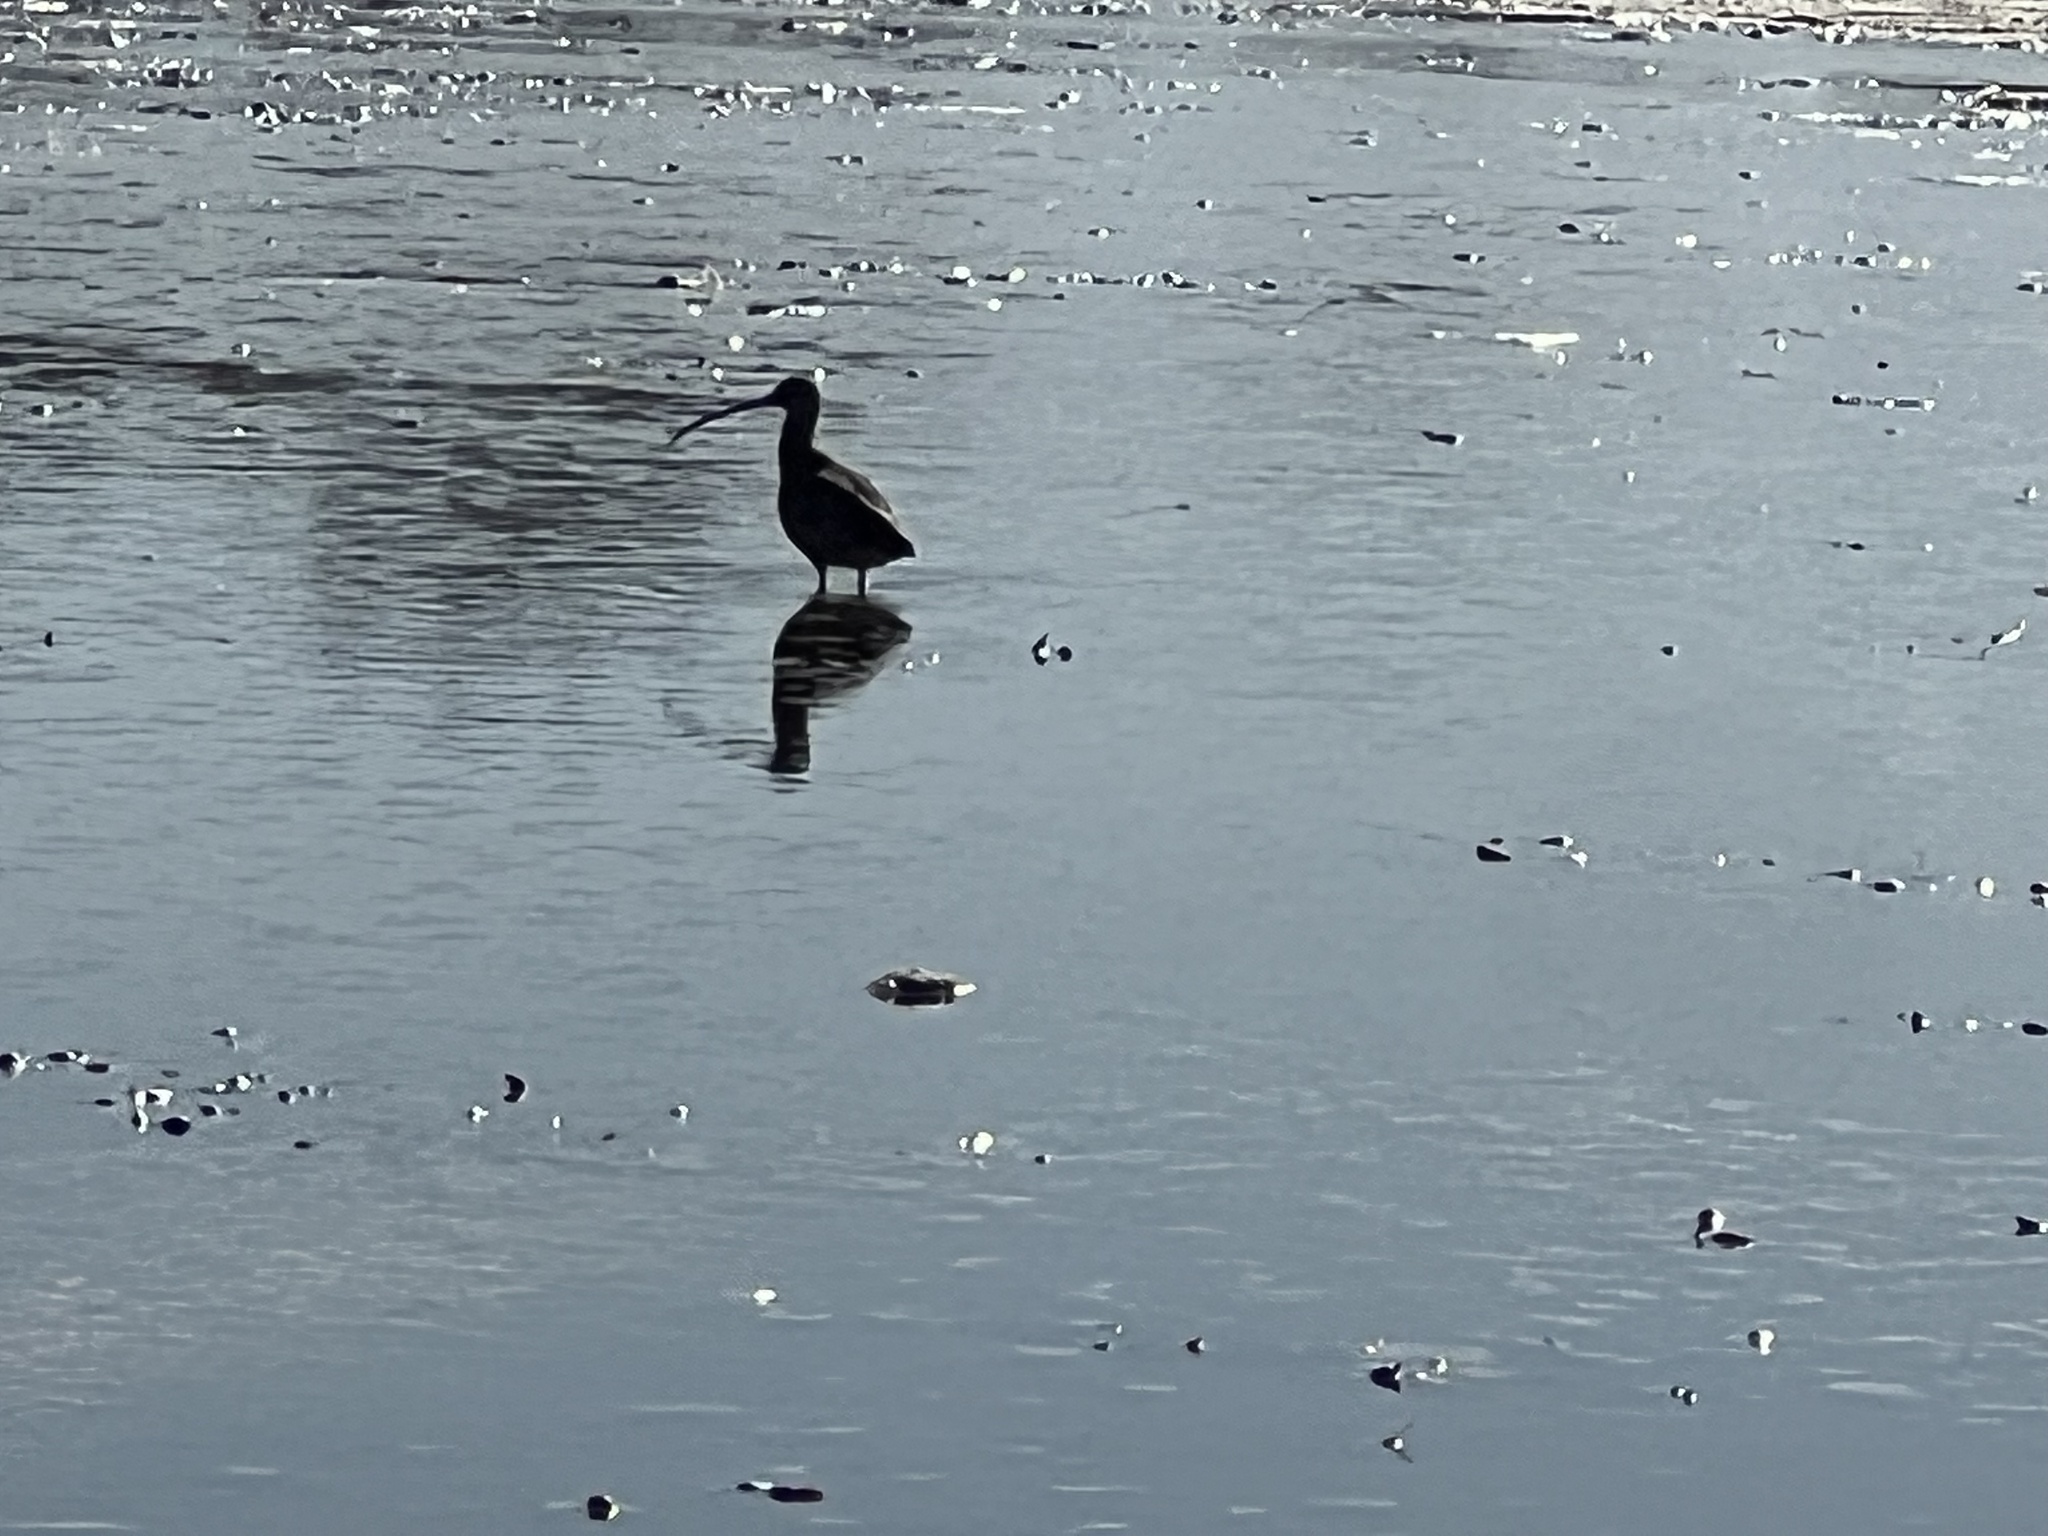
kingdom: Animalia
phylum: Chordata
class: Aves
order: Charadriiformes
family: Scolopacidae
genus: Numenius
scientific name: Numenius americanus
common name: Long-billed curlew
